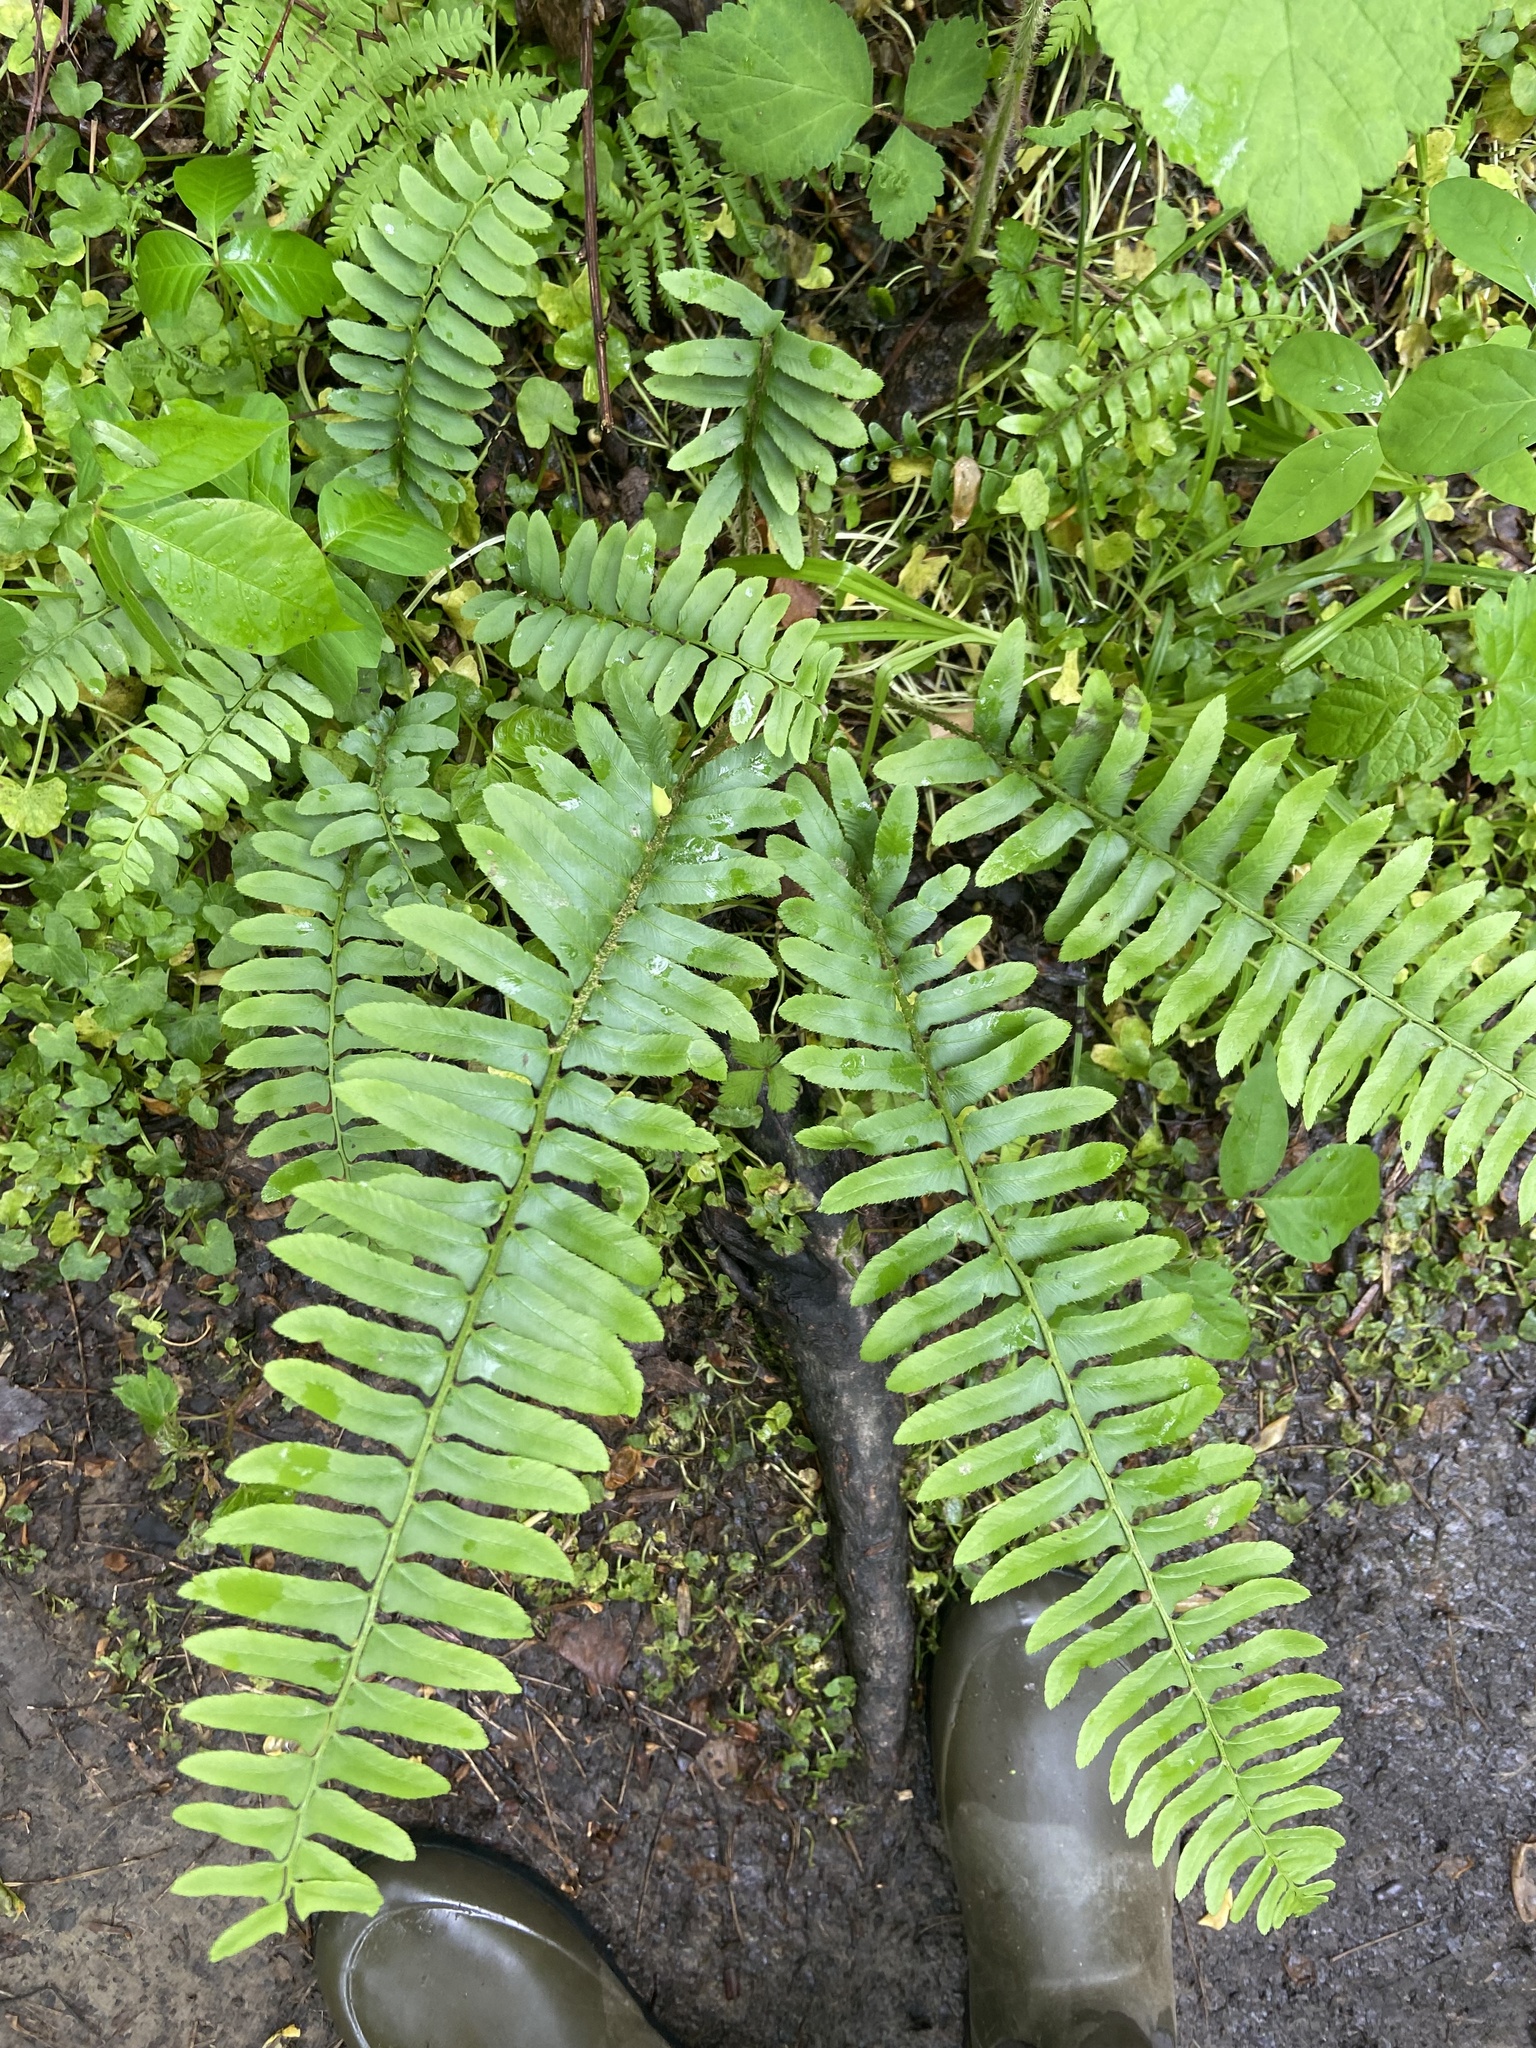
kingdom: Plantae
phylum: Tracheophyta
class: Polypodiopsida
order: Polypodiales
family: Dryopteridaceae
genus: Polystichum
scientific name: Polystichum acrostichoides
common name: Christmas fern
